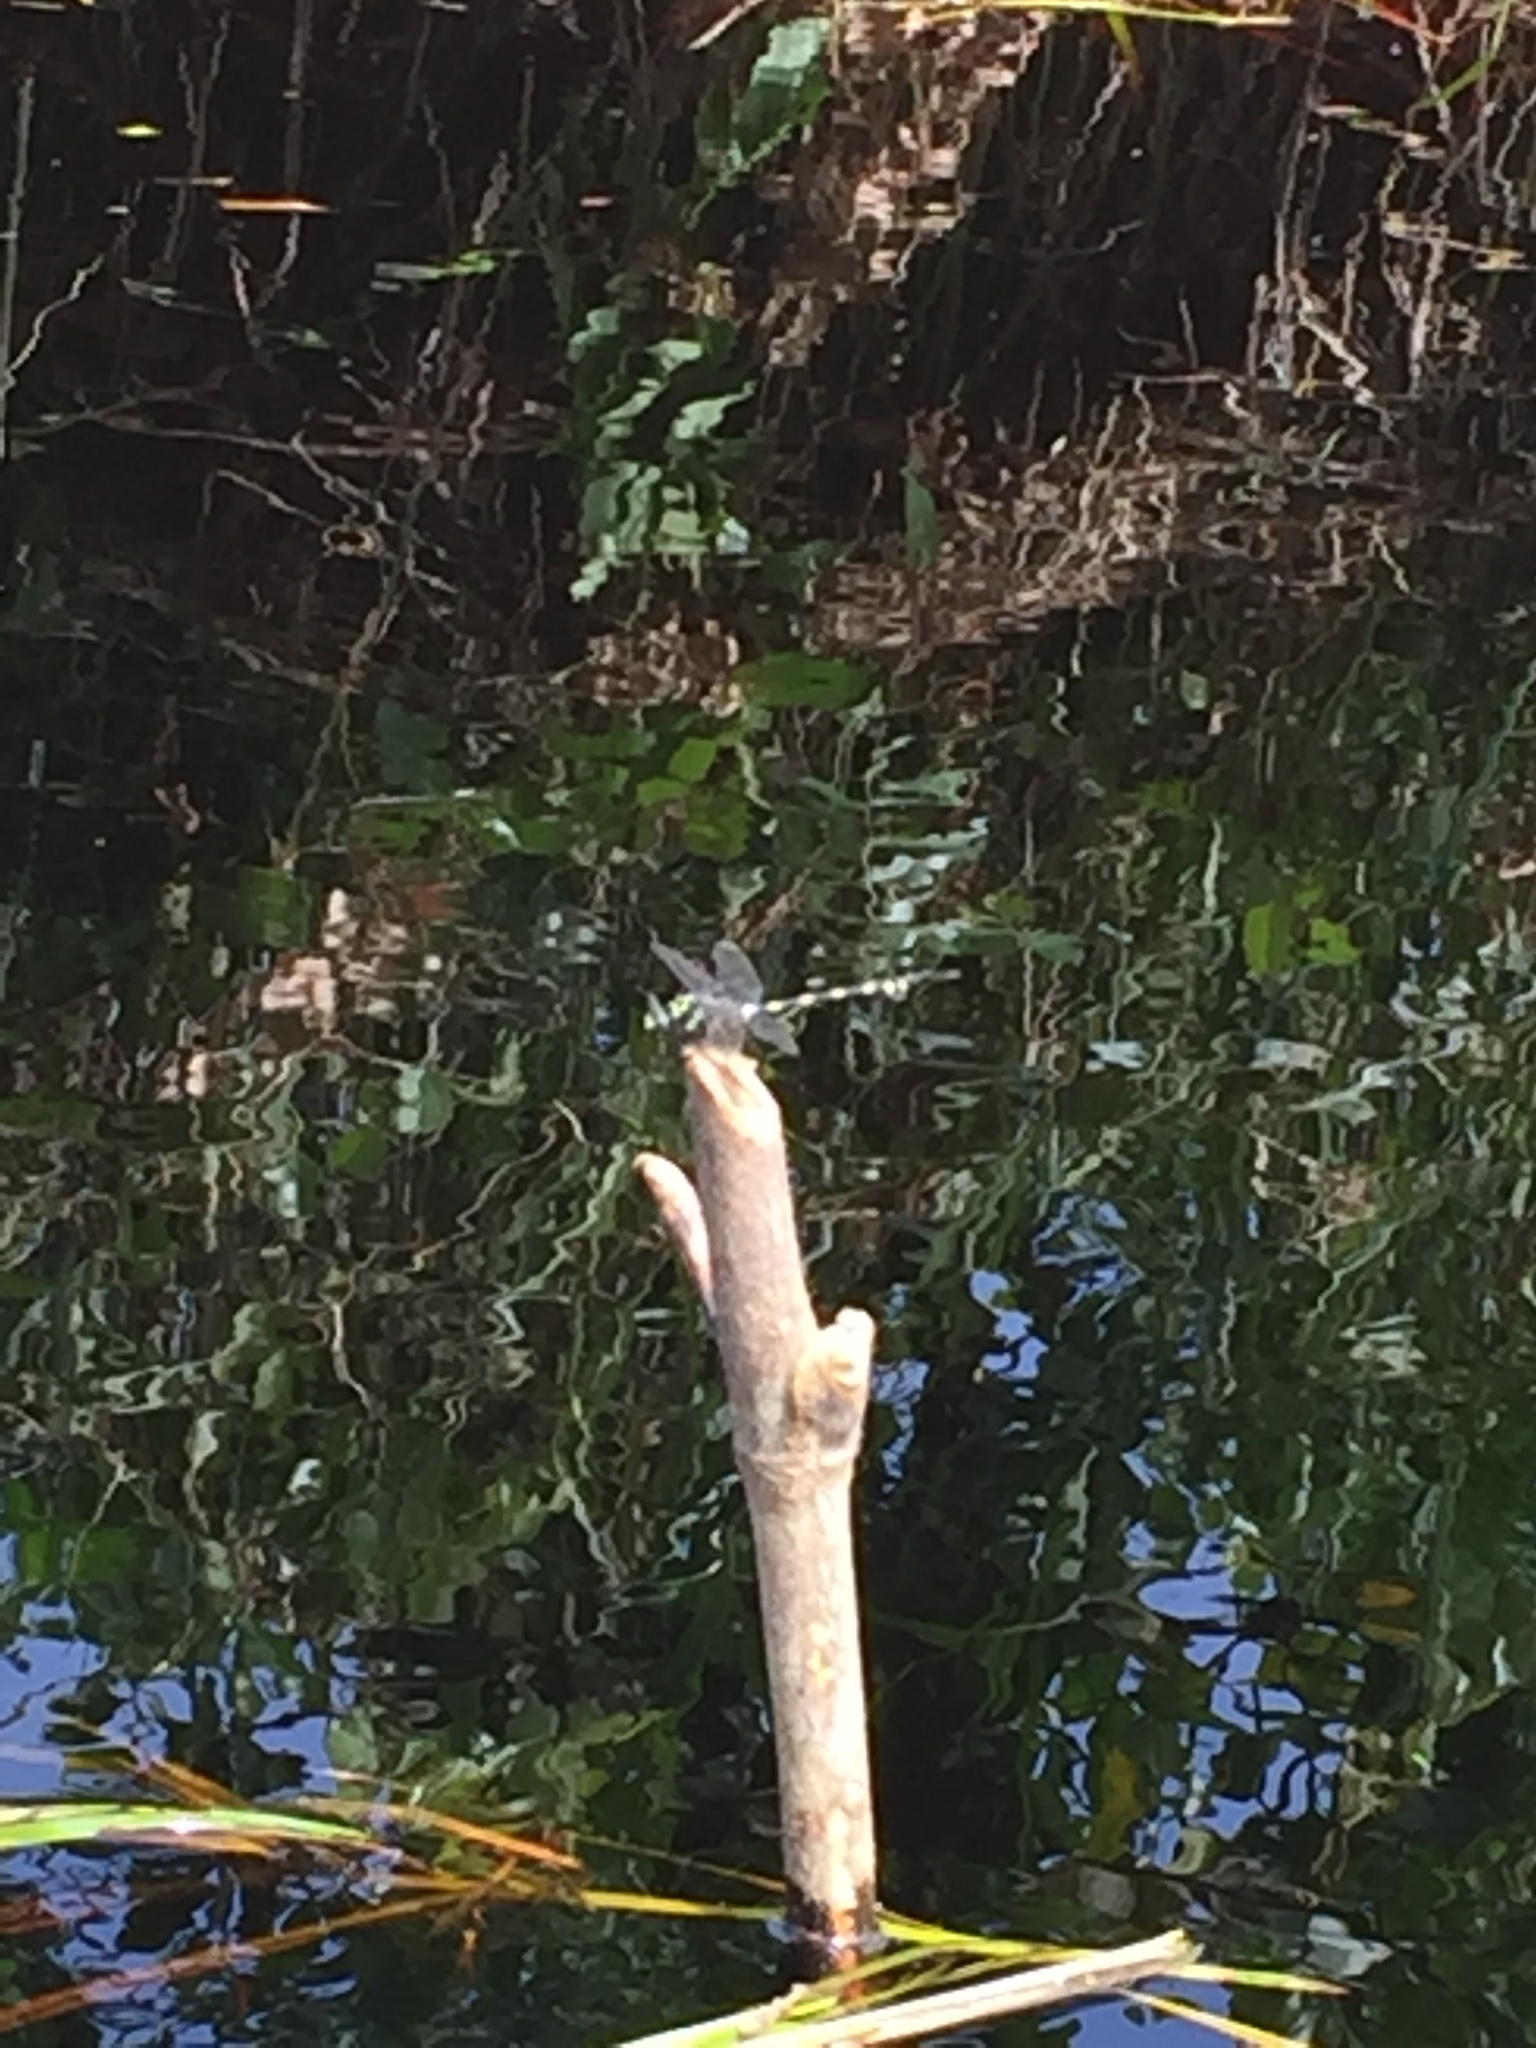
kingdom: Animalia
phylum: Arthropoda
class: Insecta
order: Odonata
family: Gomphidae
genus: Ictinogomphus
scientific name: Ictinogomphus decoratus
